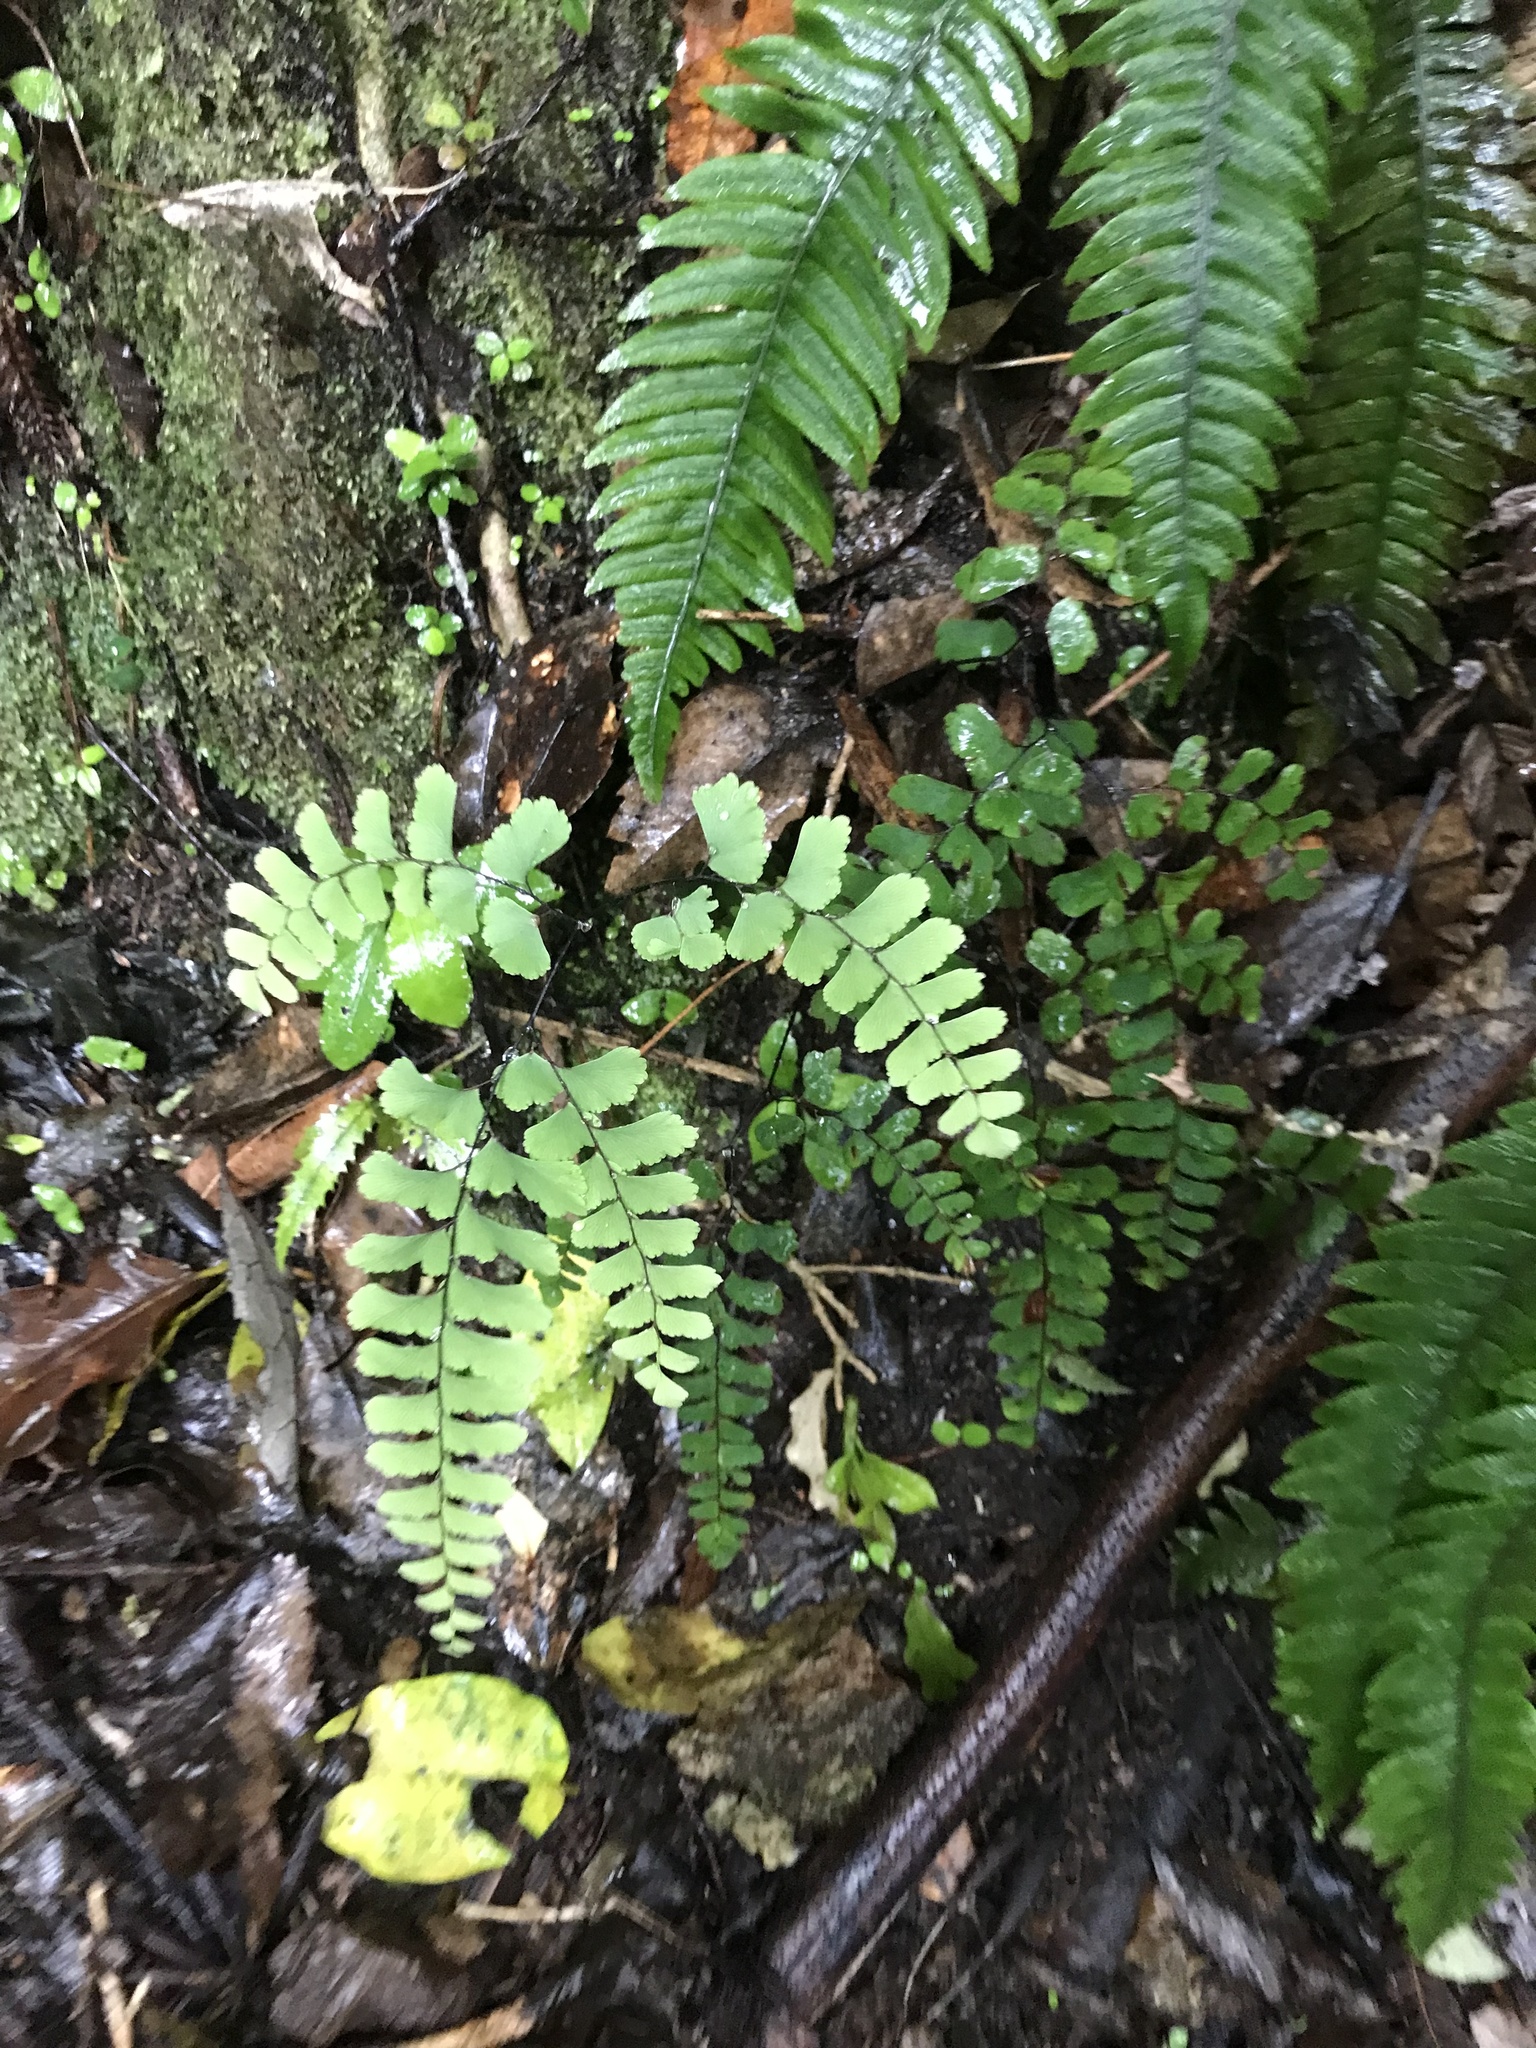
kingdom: Plantae
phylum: Tracheophyta
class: Polypodiopsida
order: Polypodiales
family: Pteridaceae
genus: Adiantum
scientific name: Adiantum cunninghamii
